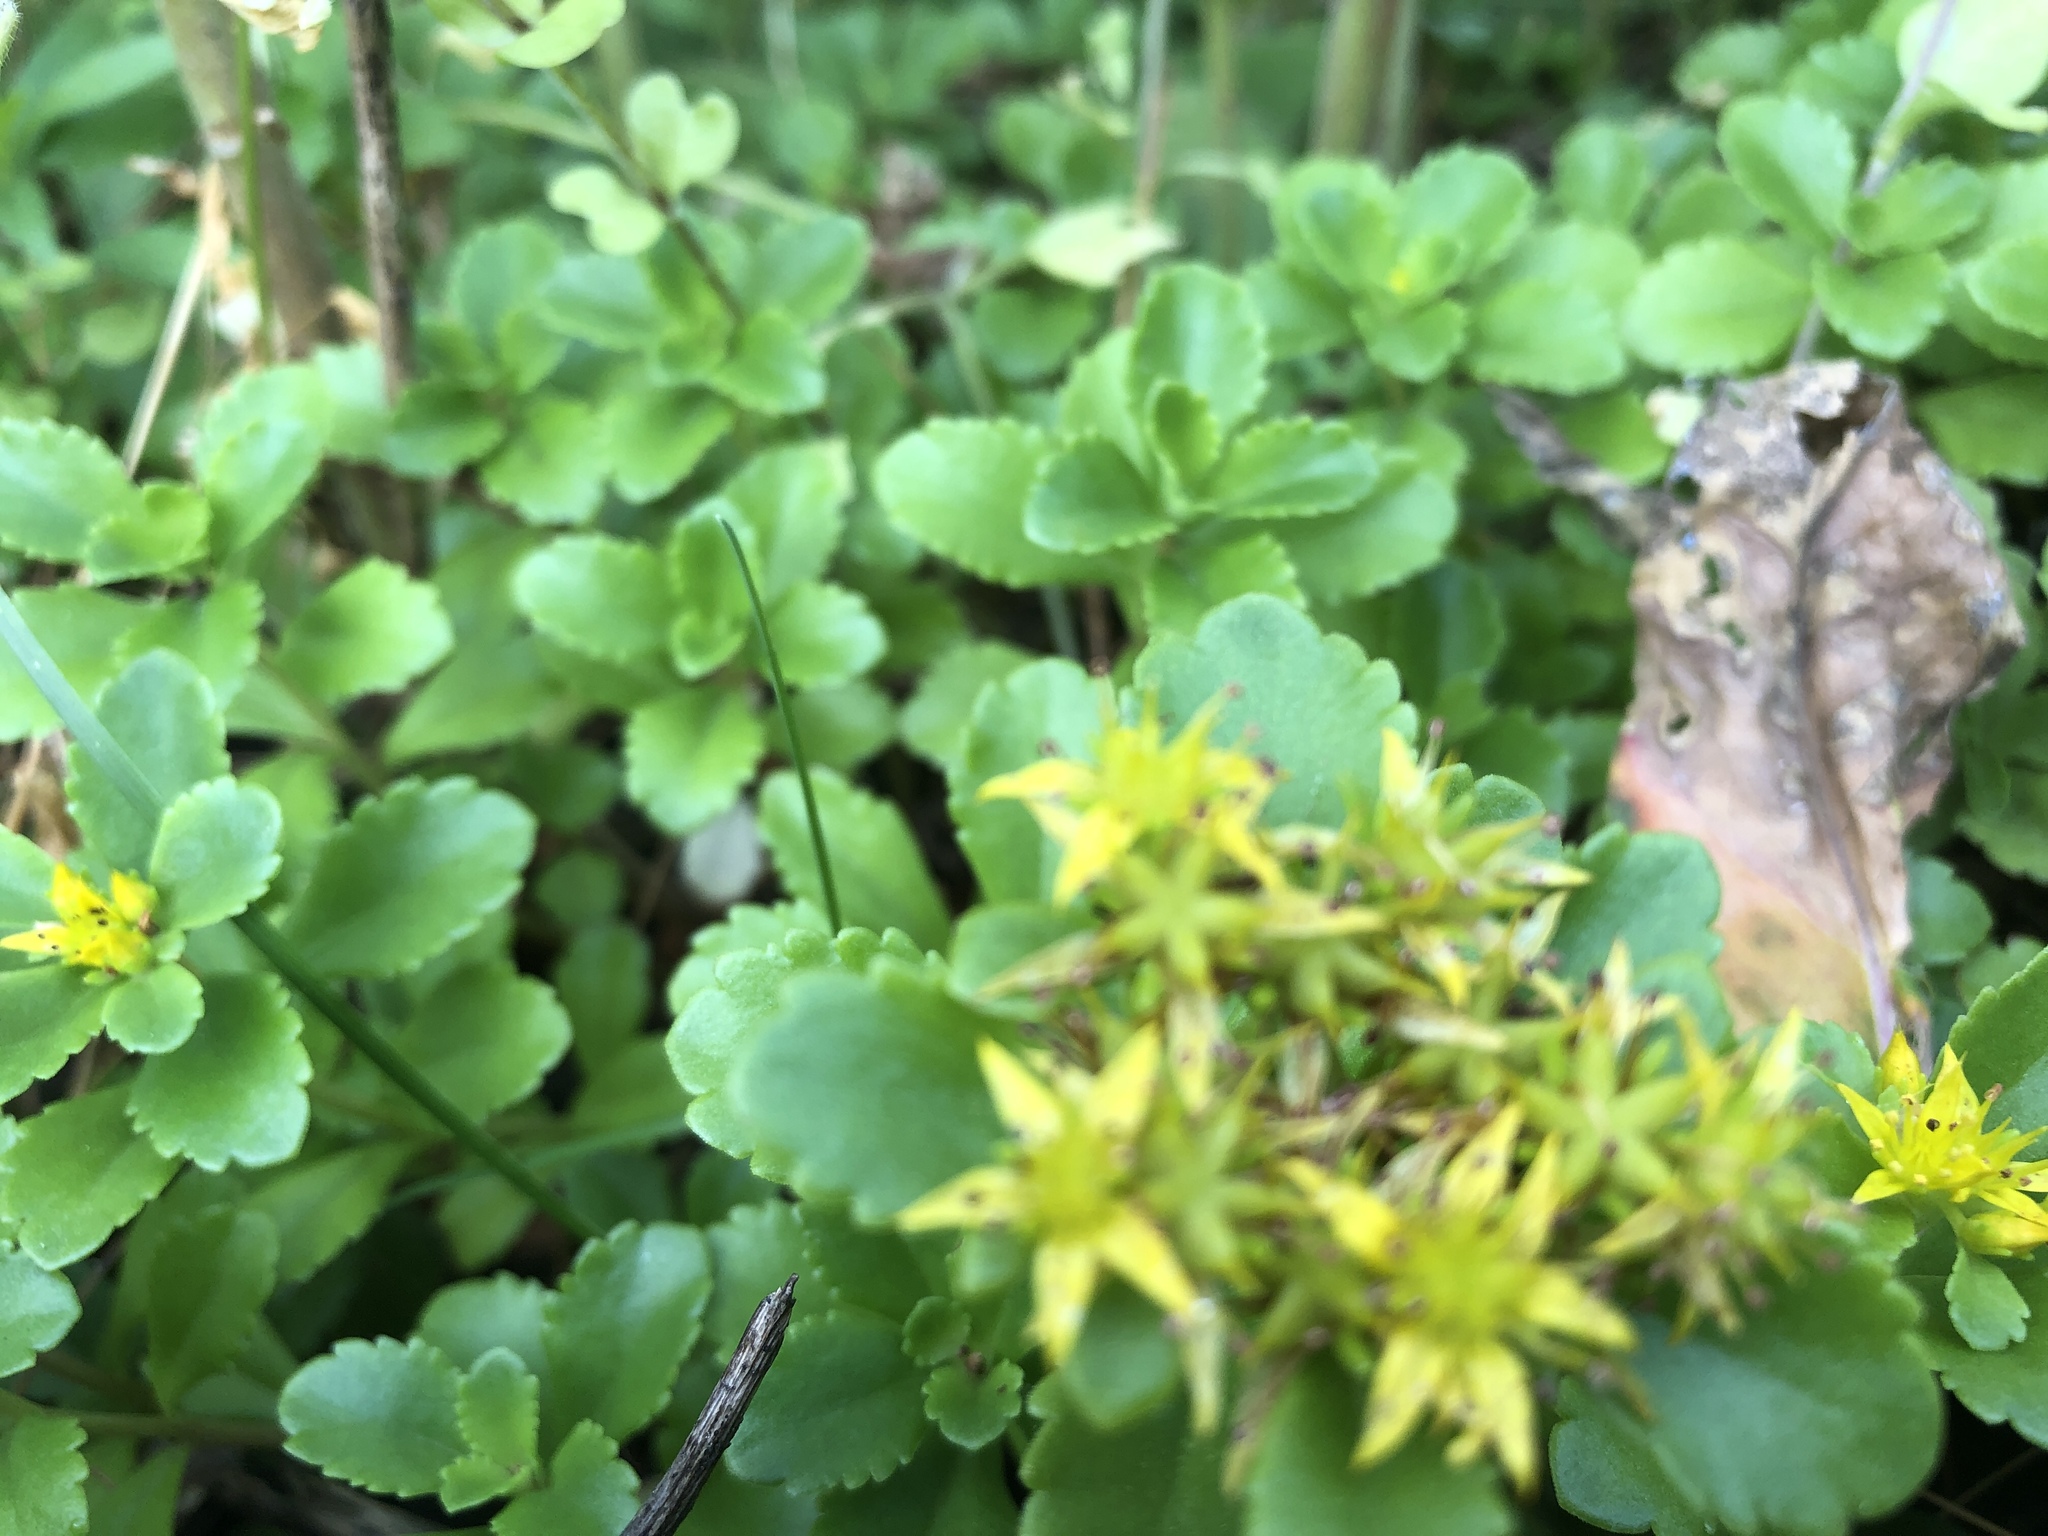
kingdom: Plantae
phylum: Tracheophyta
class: Magnoliopsida
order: Saxifragales
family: Crassulaceae
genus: Rhodiola
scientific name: Rhodiola rosea
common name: Roseroot
